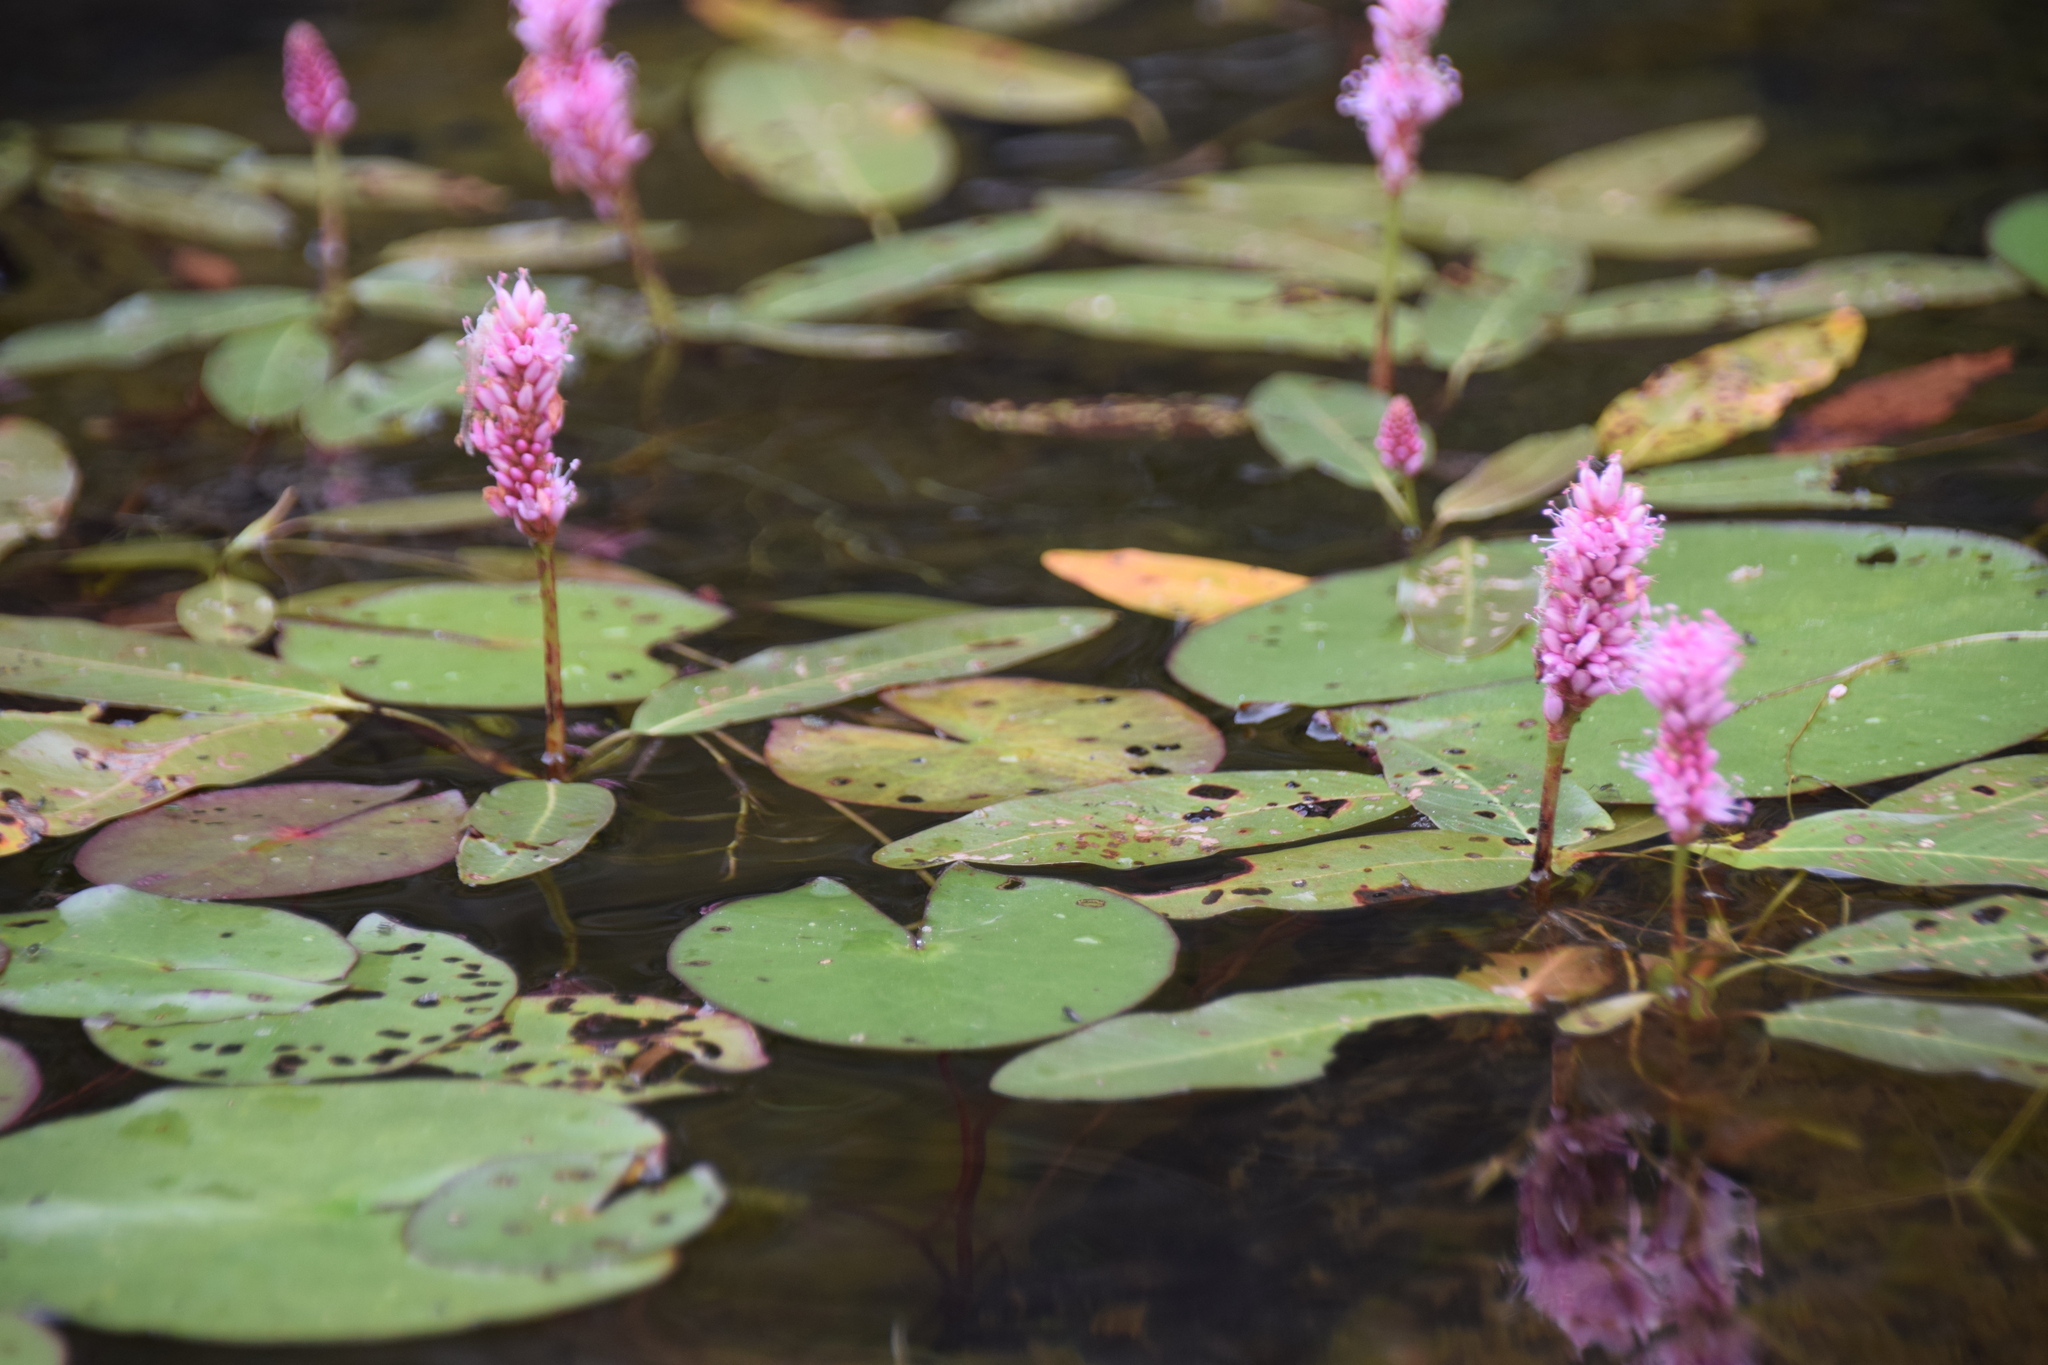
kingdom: Plantae
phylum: Tracheophyta
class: Magnoliopsida
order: Caryophyllales
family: Polygonaceae
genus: Persicaria
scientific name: Persicaria amphibia
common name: Amphibious bistort
